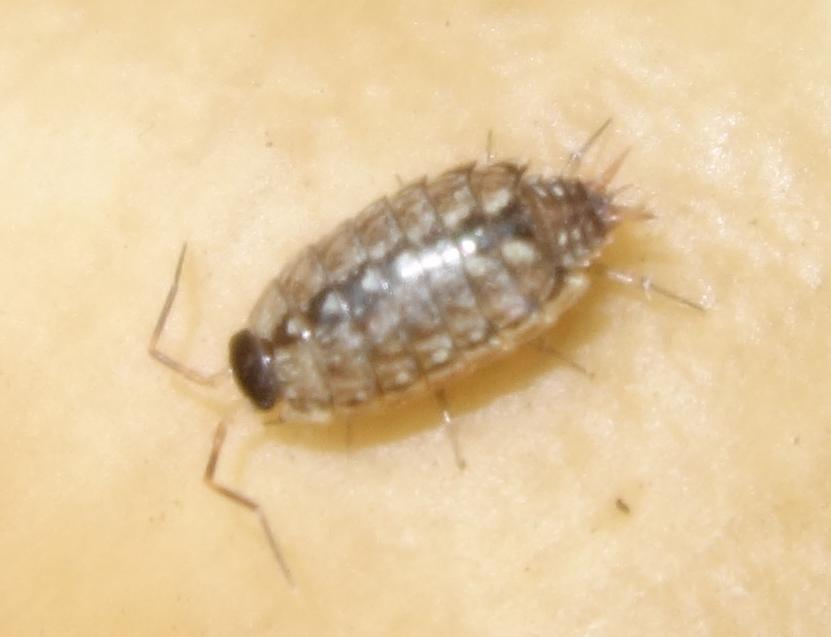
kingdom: Animalia
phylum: Arthropoda
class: Malacostraca
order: Isopoda
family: Philosciidae
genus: Philoscia
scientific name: Philoscia muscorum
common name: Common striped woodlouse
